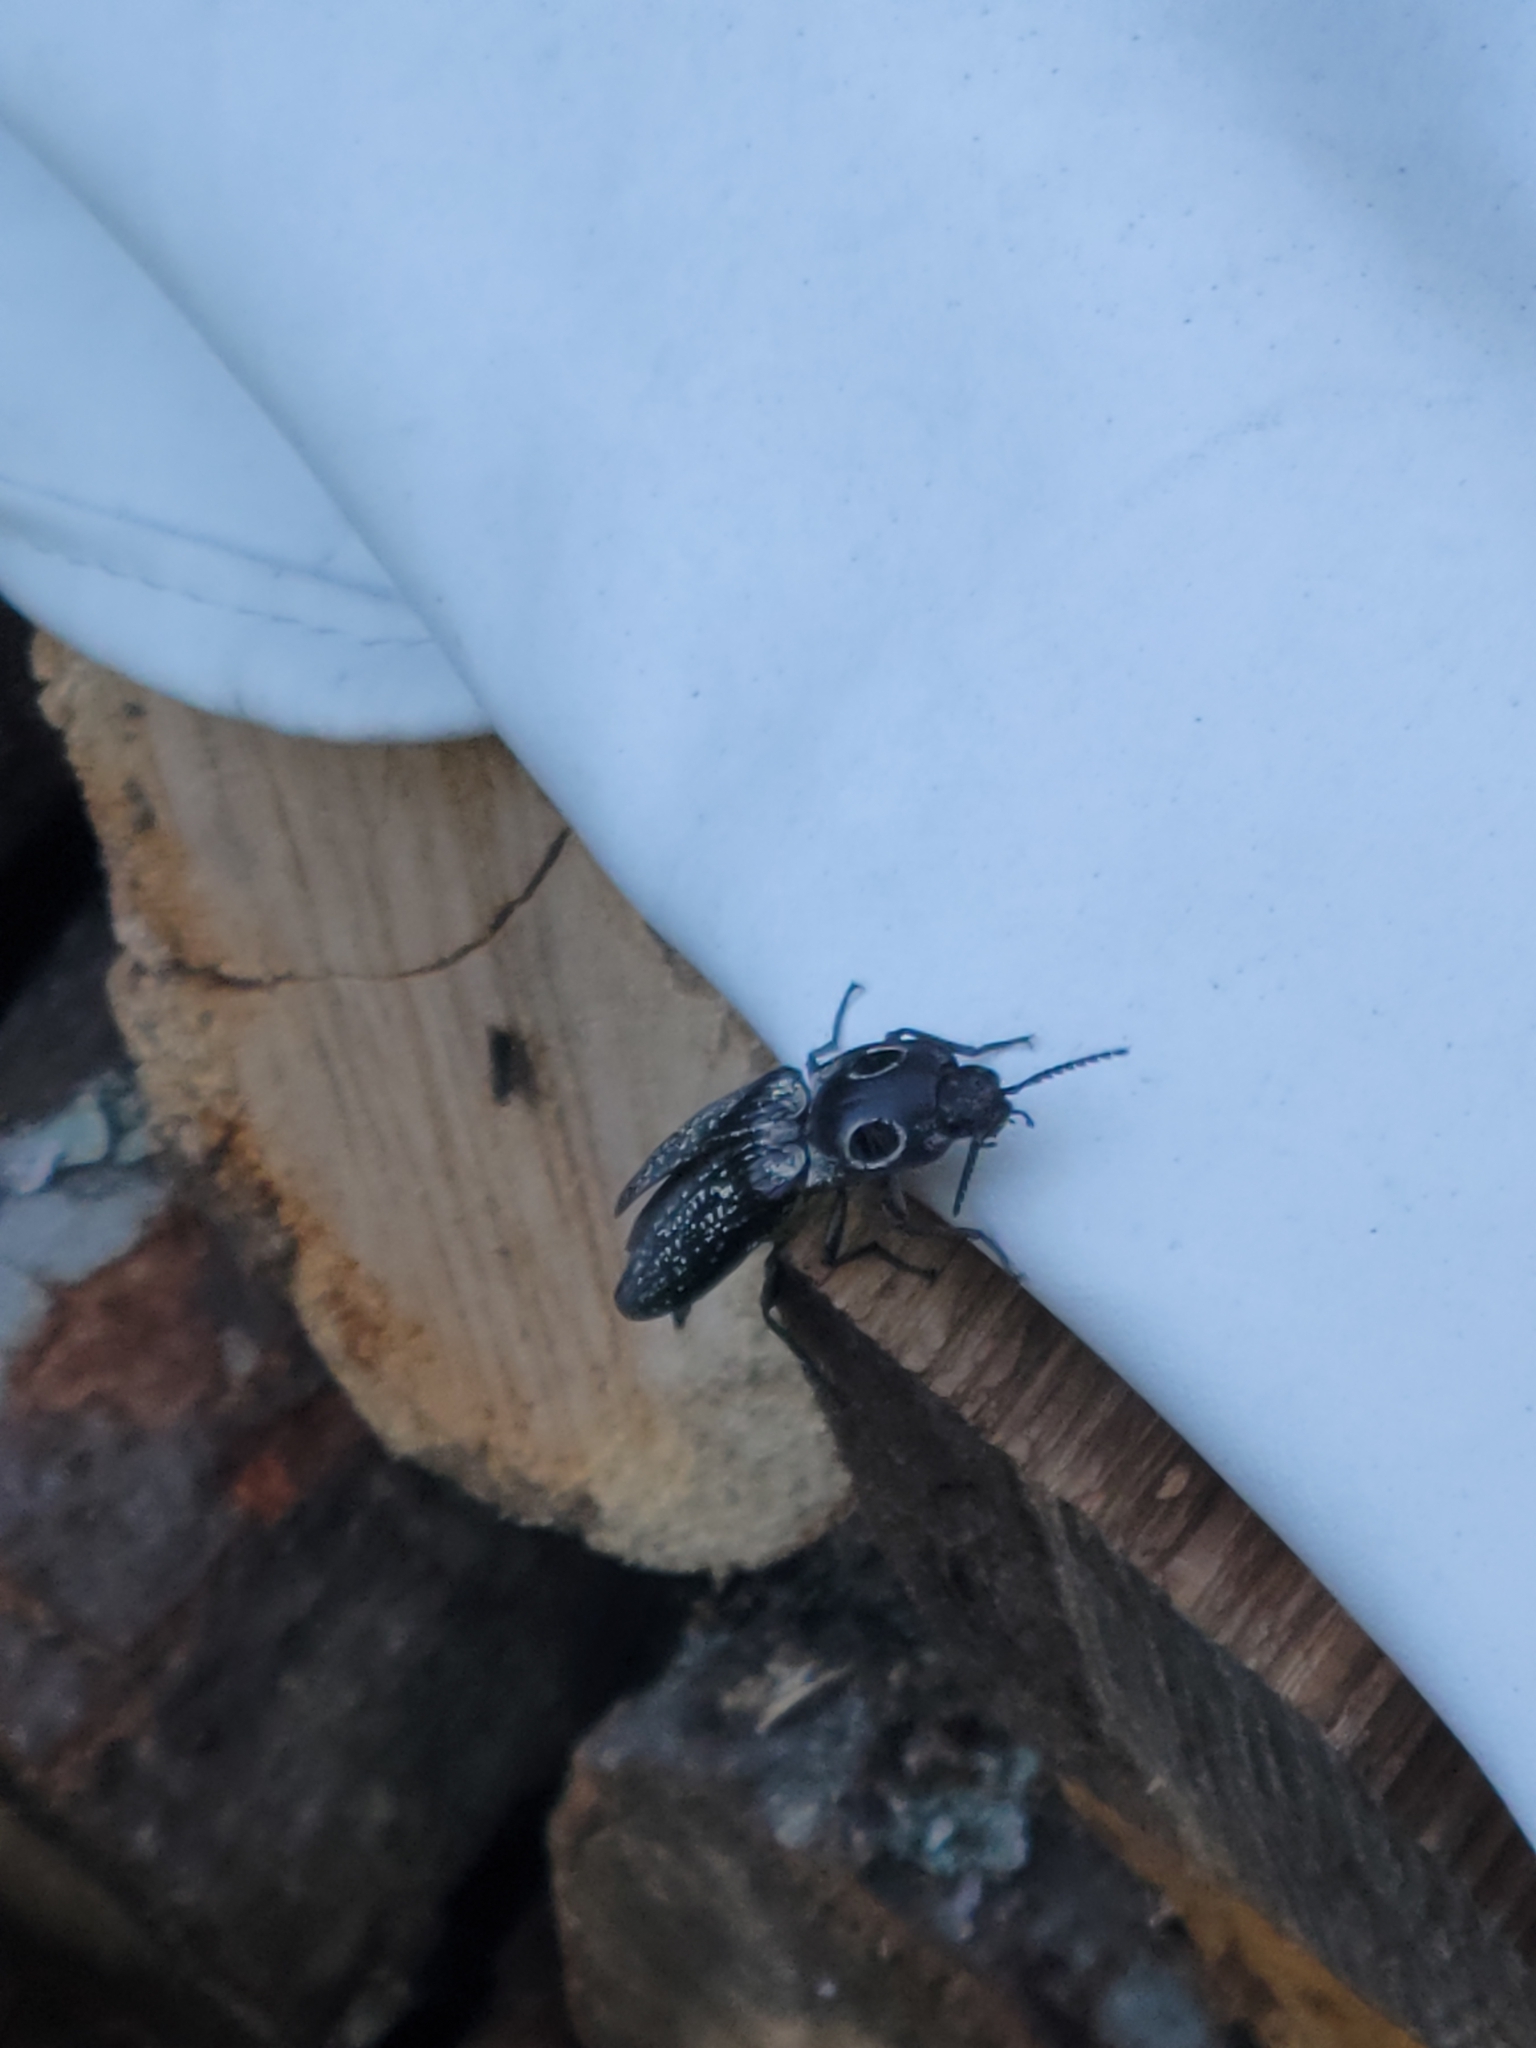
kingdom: Animalia
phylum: Arthropoda
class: Insecta
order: Coleoptera
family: Elateridae
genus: Alaus
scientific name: Alaus oculatus
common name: Eastern eyed click beetle
